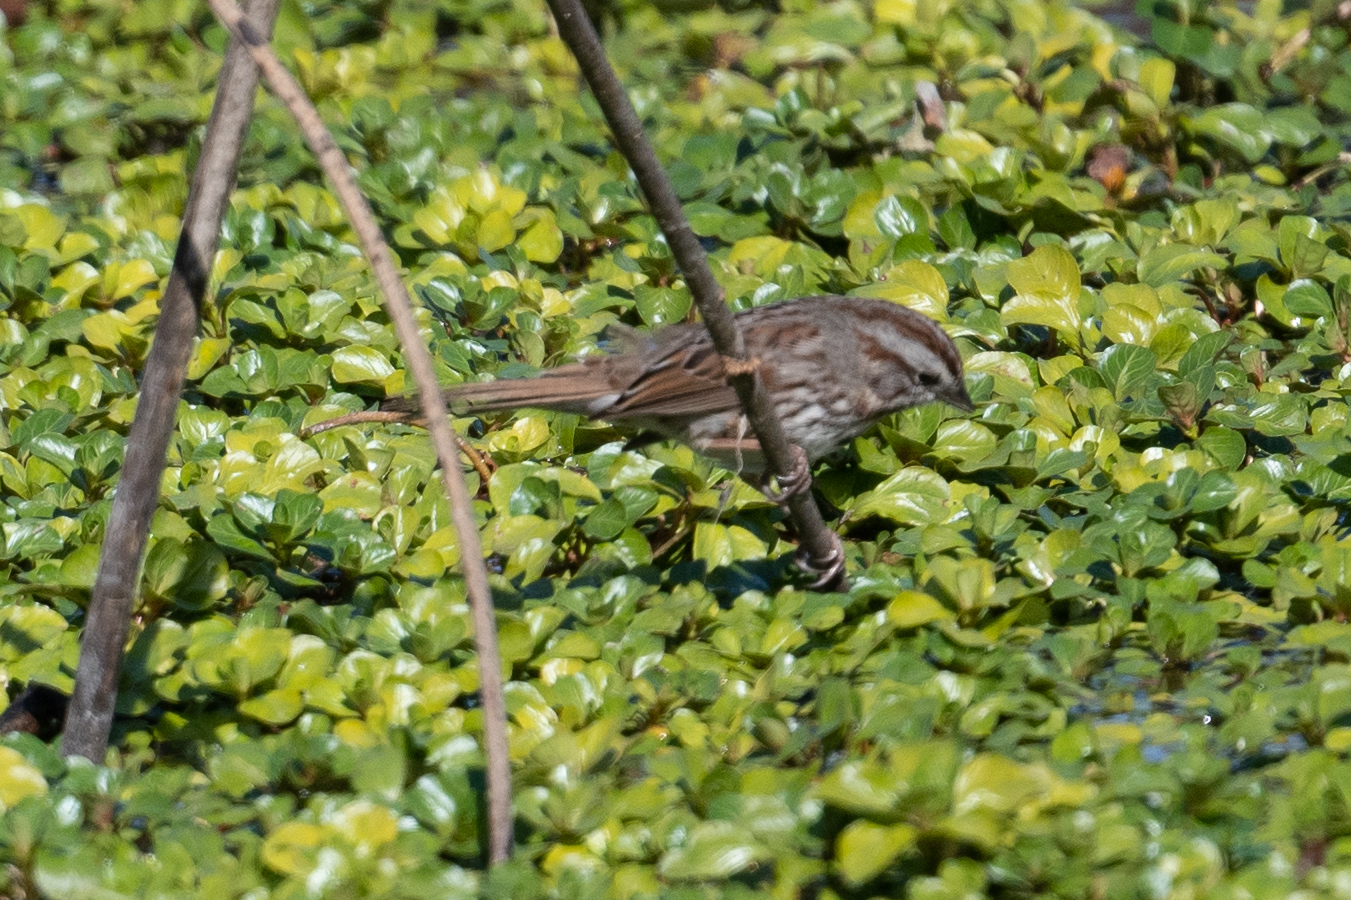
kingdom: Animalia
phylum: Chordata
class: Aves
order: Passeriformes
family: Passerellidae
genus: Melospiza
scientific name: Melospiza melodia
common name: Song sparrow
